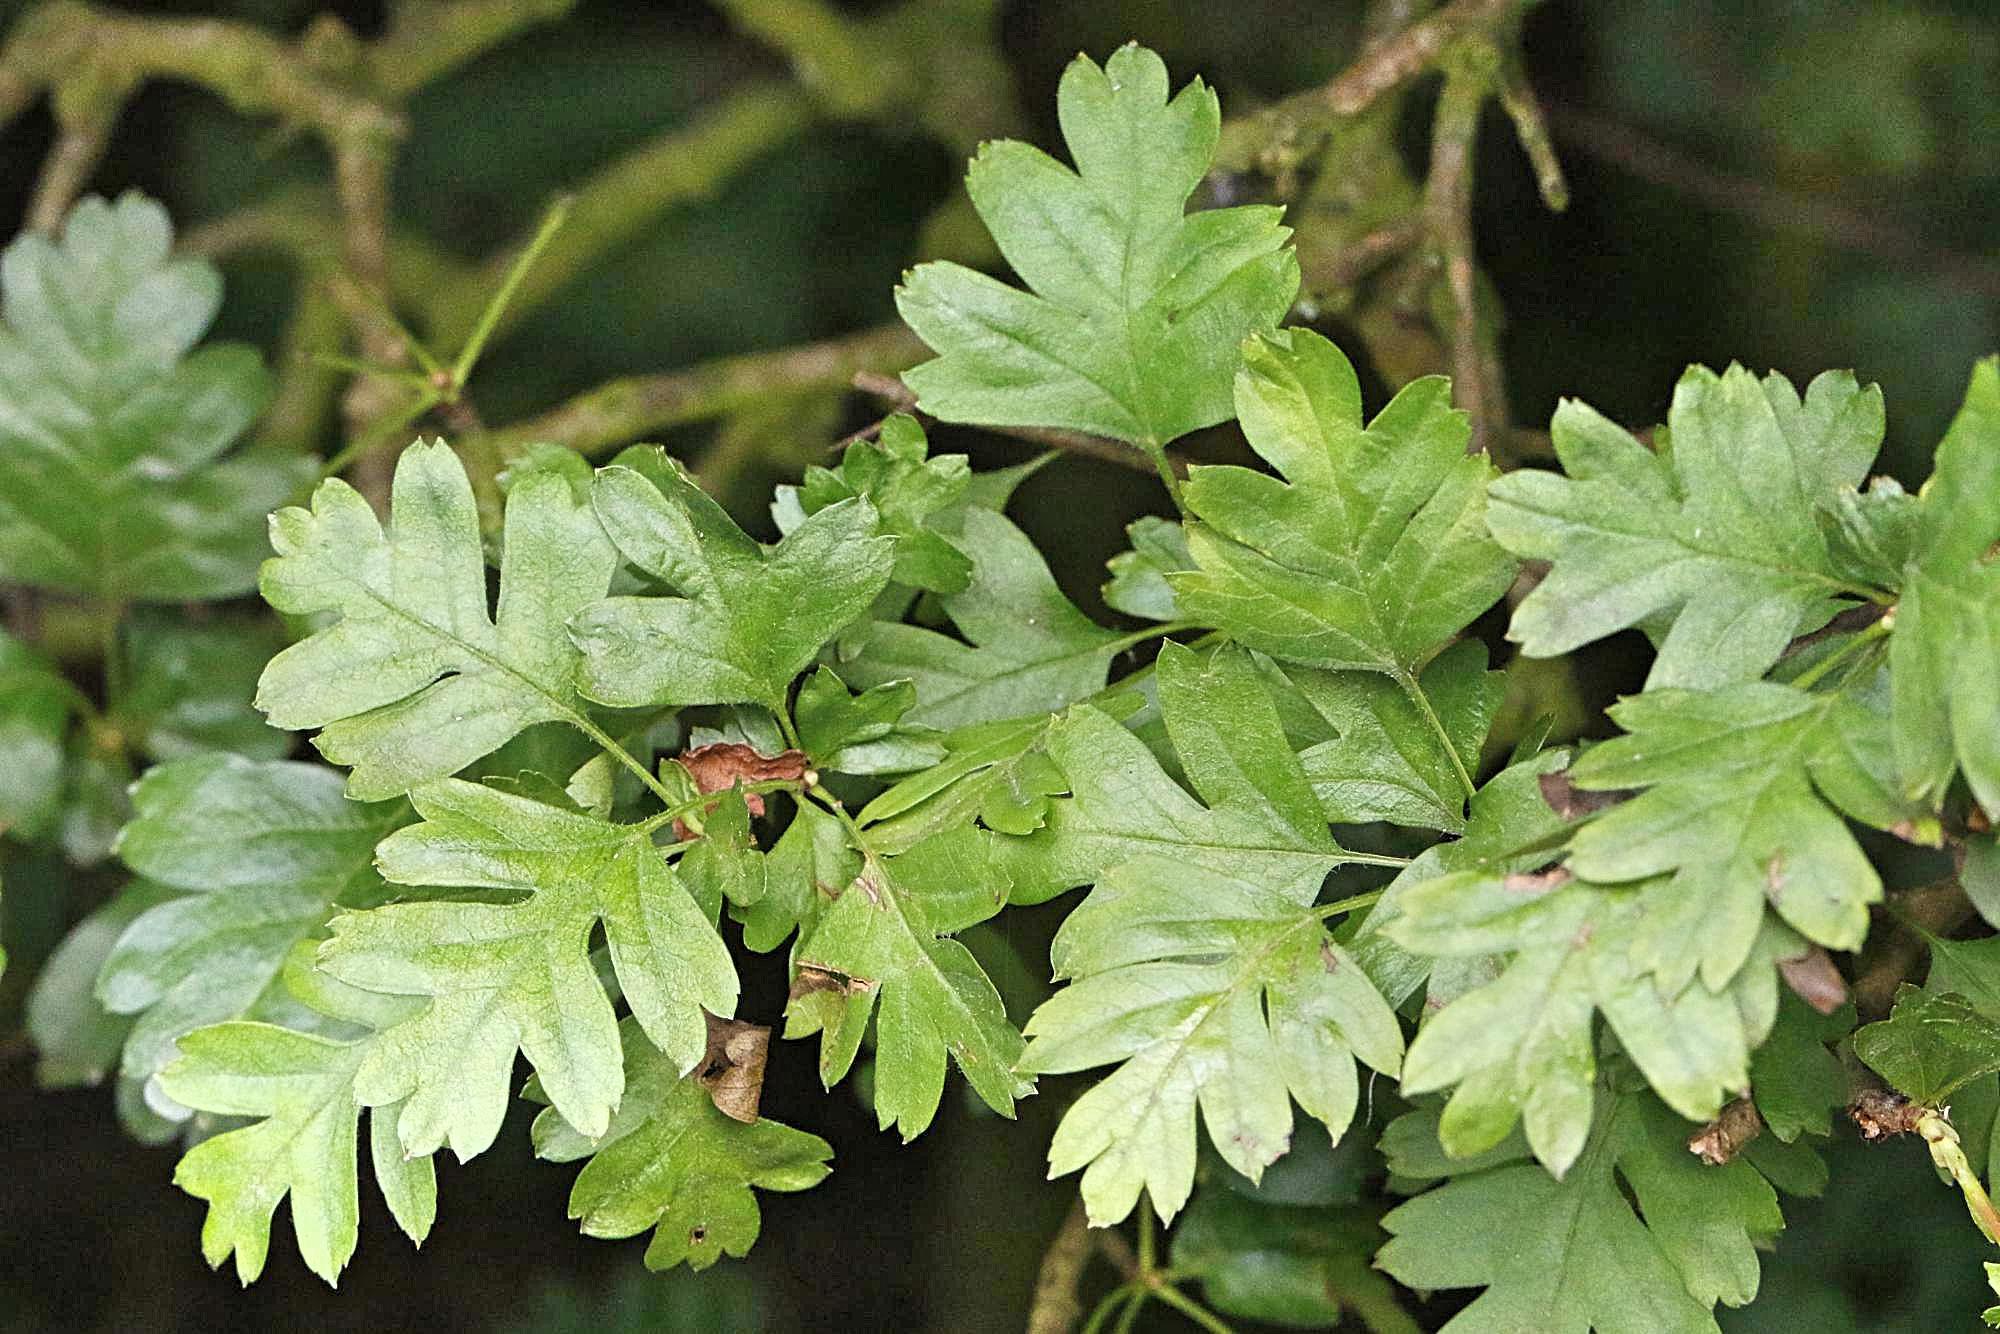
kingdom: Plantae
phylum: Tracheophyta
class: Magnoliopsida
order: Rosales
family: Rosaceae
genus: Crataegus
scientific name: Crataegus monogyna
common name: Hawthorn
